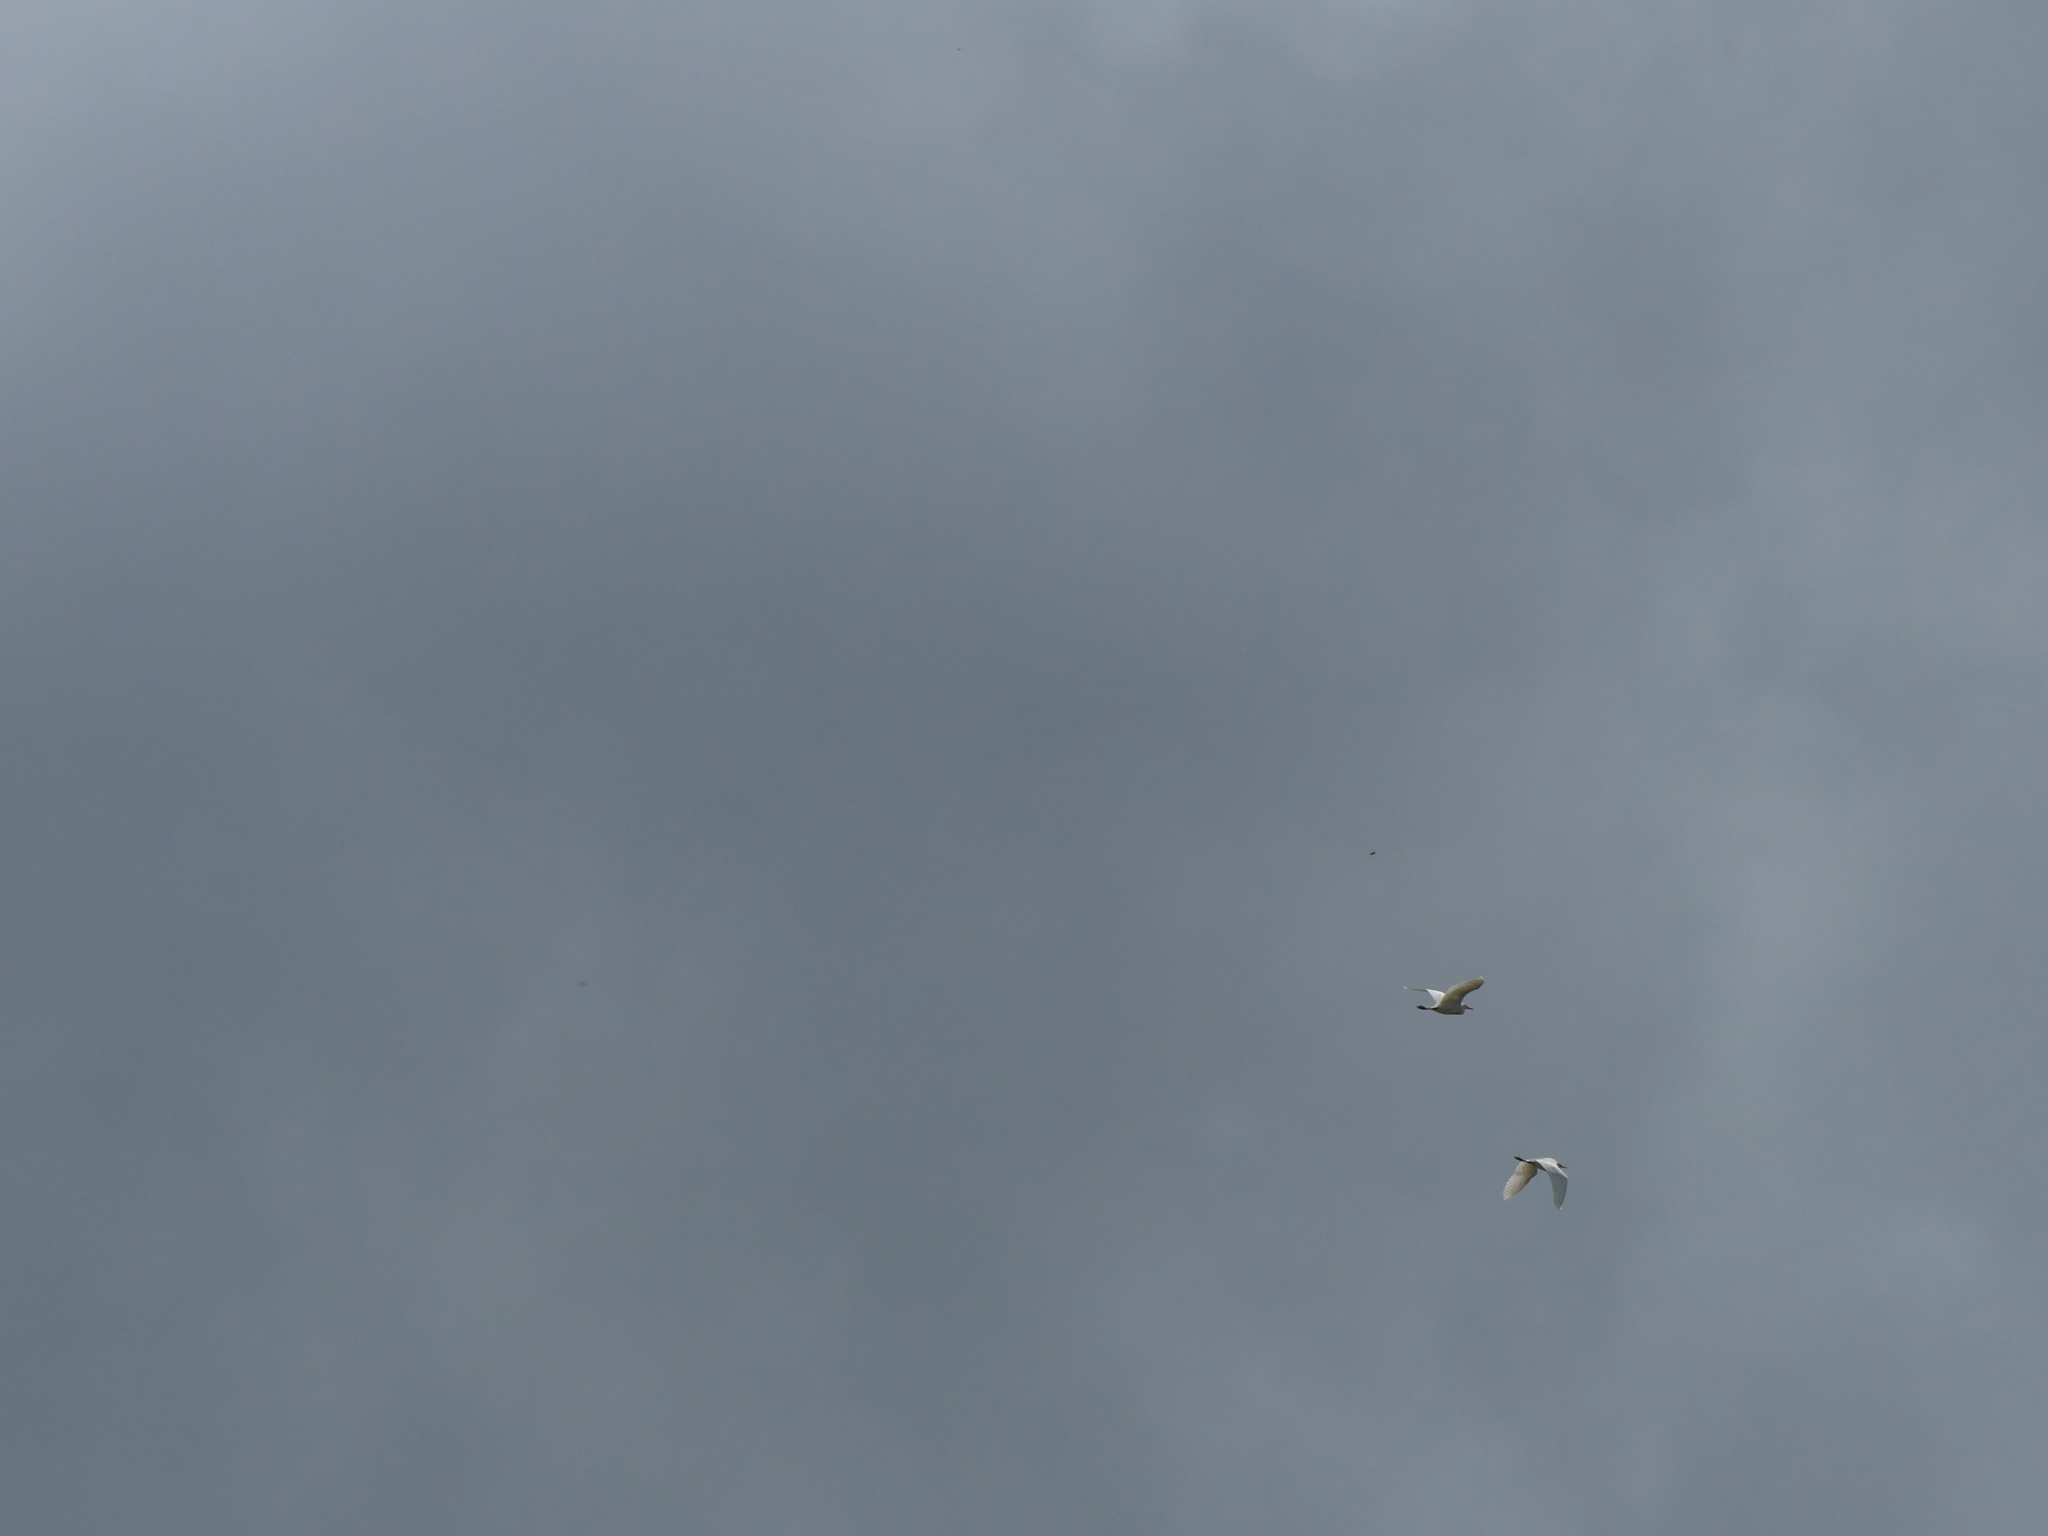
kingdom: Animalia
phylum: Chordata
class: Aves
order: Pelecaniformes
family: Ardeidae
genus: Bubulcus
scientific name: Bubulcus ibis
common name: Cattle egret
